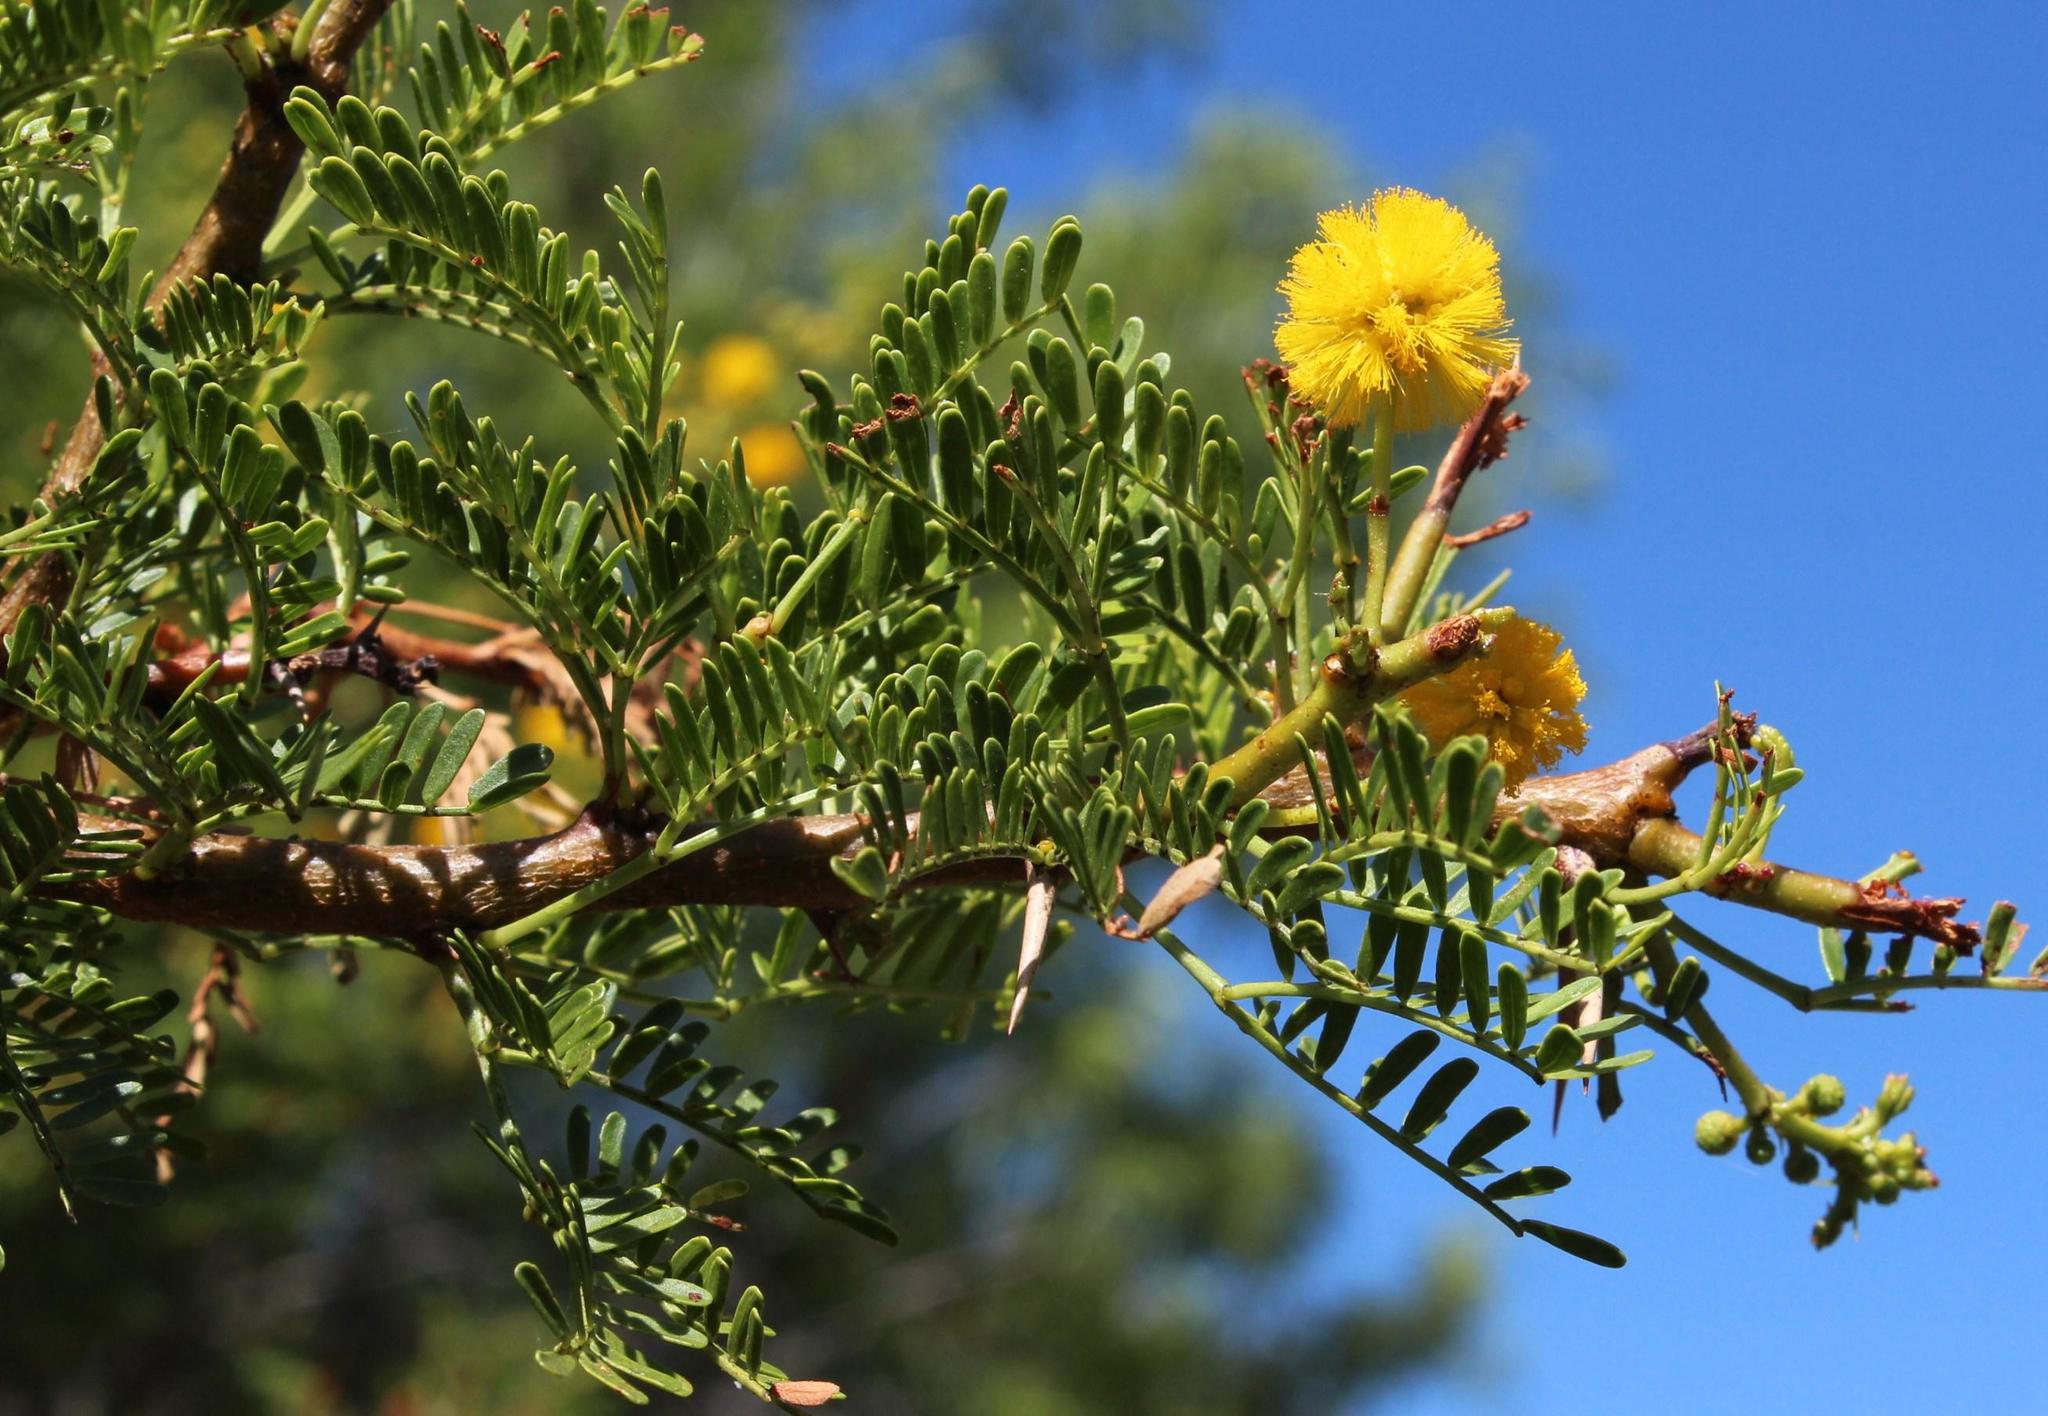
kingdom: Plantae
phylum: Tracheophyta
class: Magnoliopsida
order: Fabales
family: Fabaceae
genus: Vachellia
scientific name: Vachellia karroo
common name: Sweet thorn
